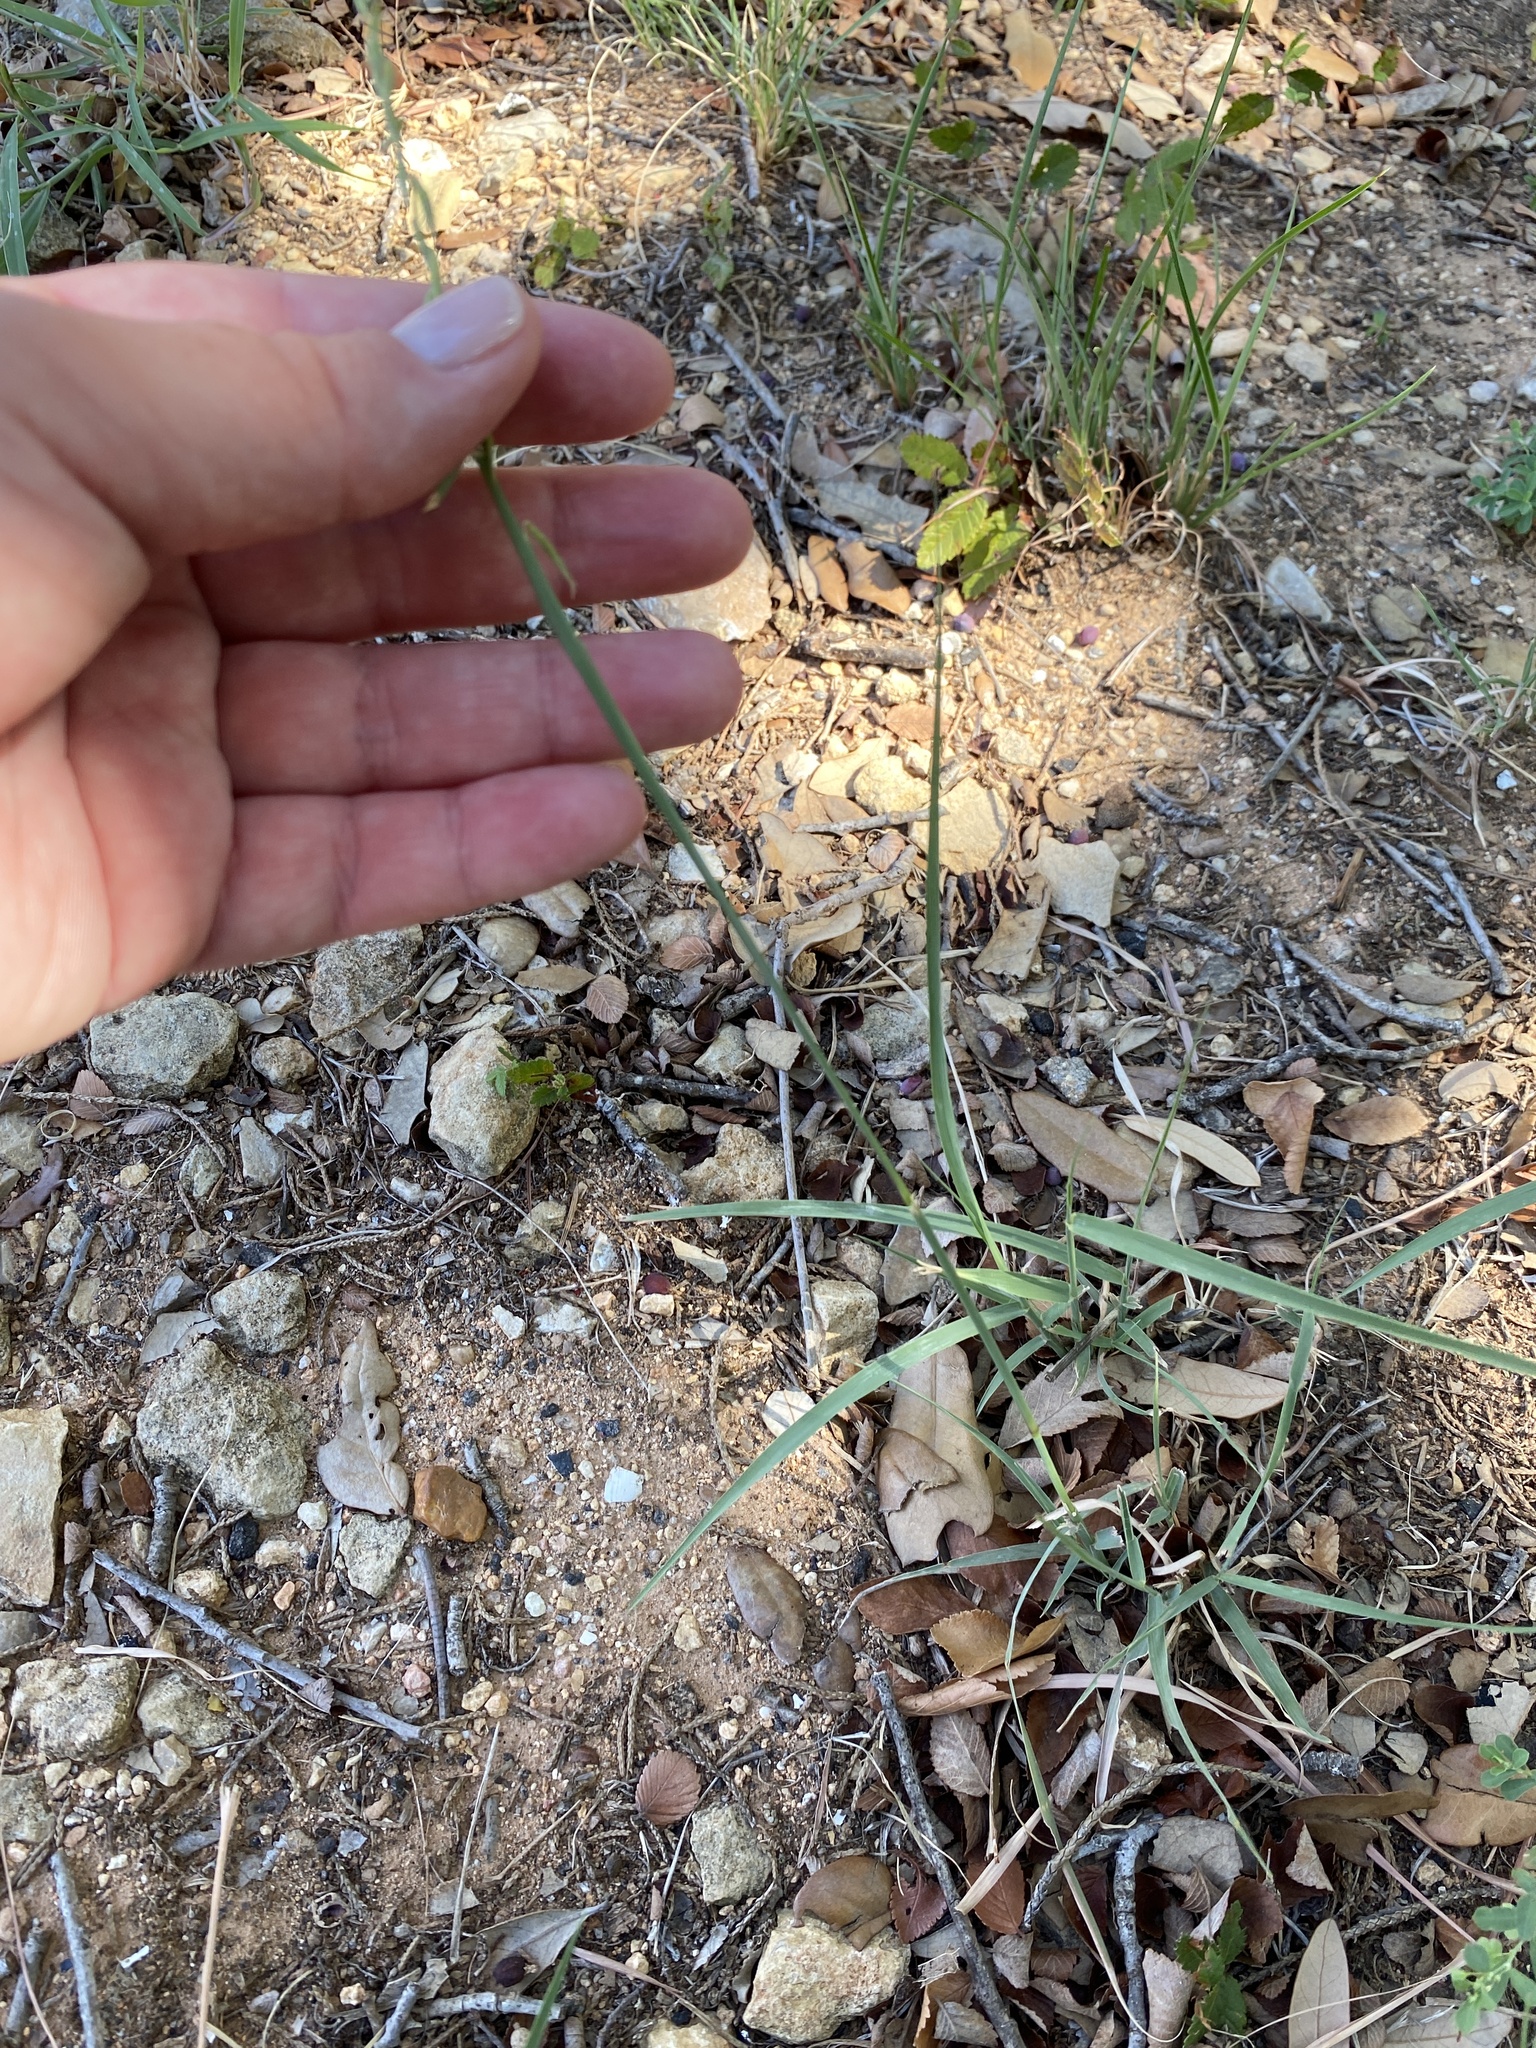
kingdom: Plantae
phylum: Tracheophyta
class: Liliopsida
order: Poales
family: Poaceae
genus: Bouteloua
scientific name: Bouteloua curtipendula
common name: Side-oats grama
